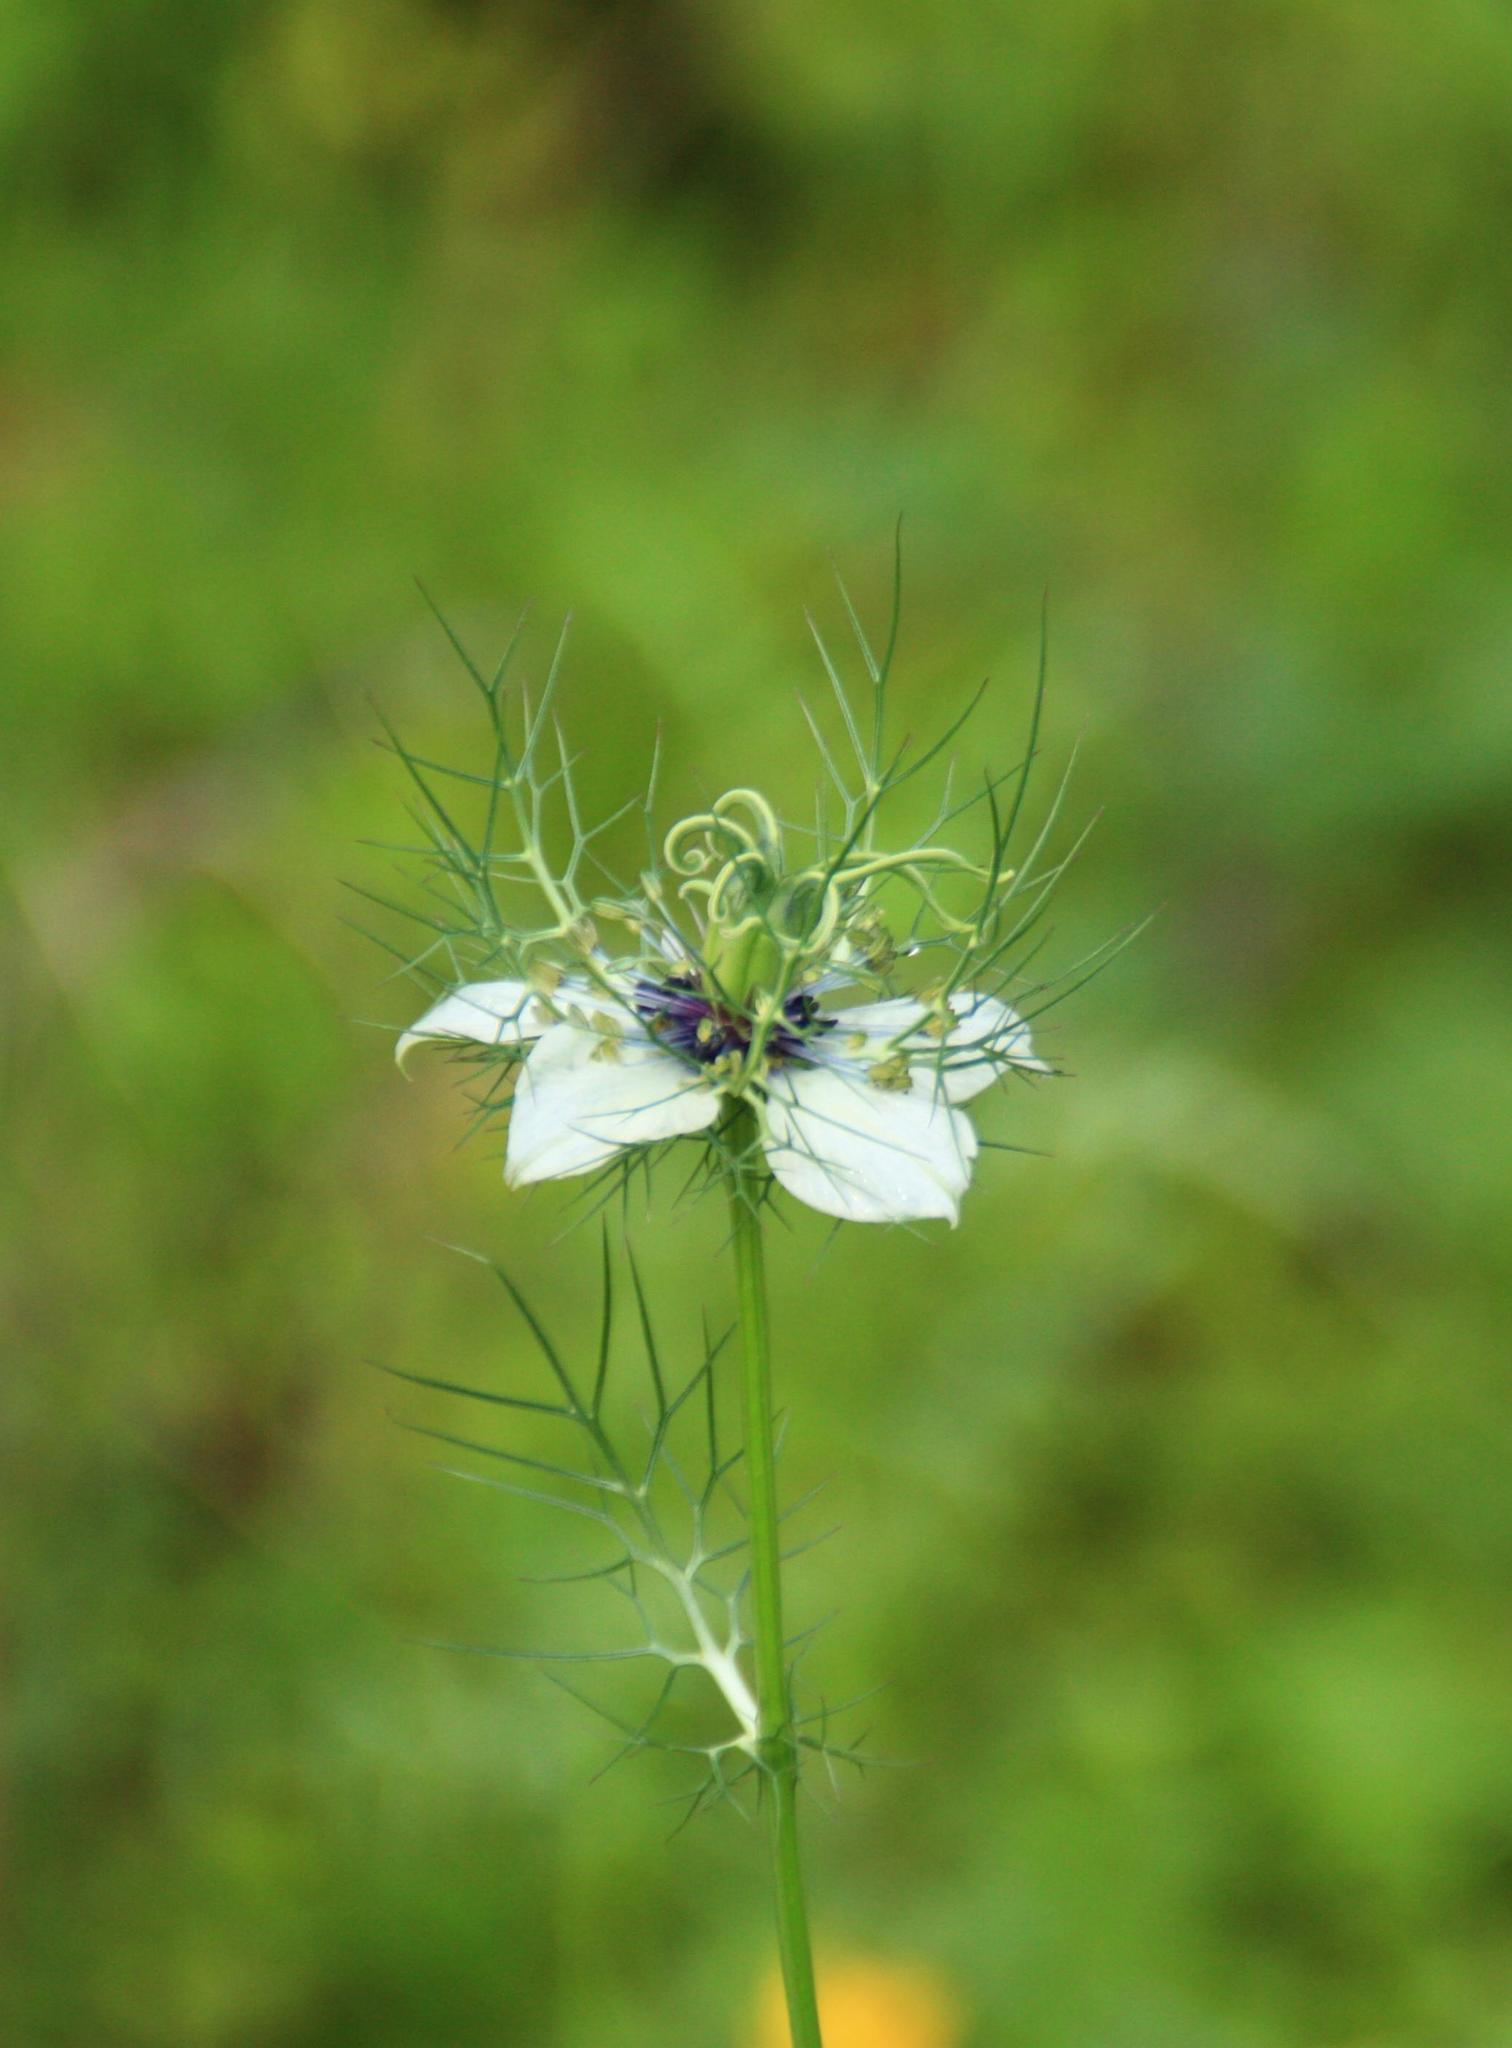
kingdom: Plantae
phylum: Tracheophyta
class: Magnoliopsida
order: Ranunculales
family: Ranunculaceae
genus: Nigella
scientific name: Nigella damascena
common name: Love-in-a-mist
